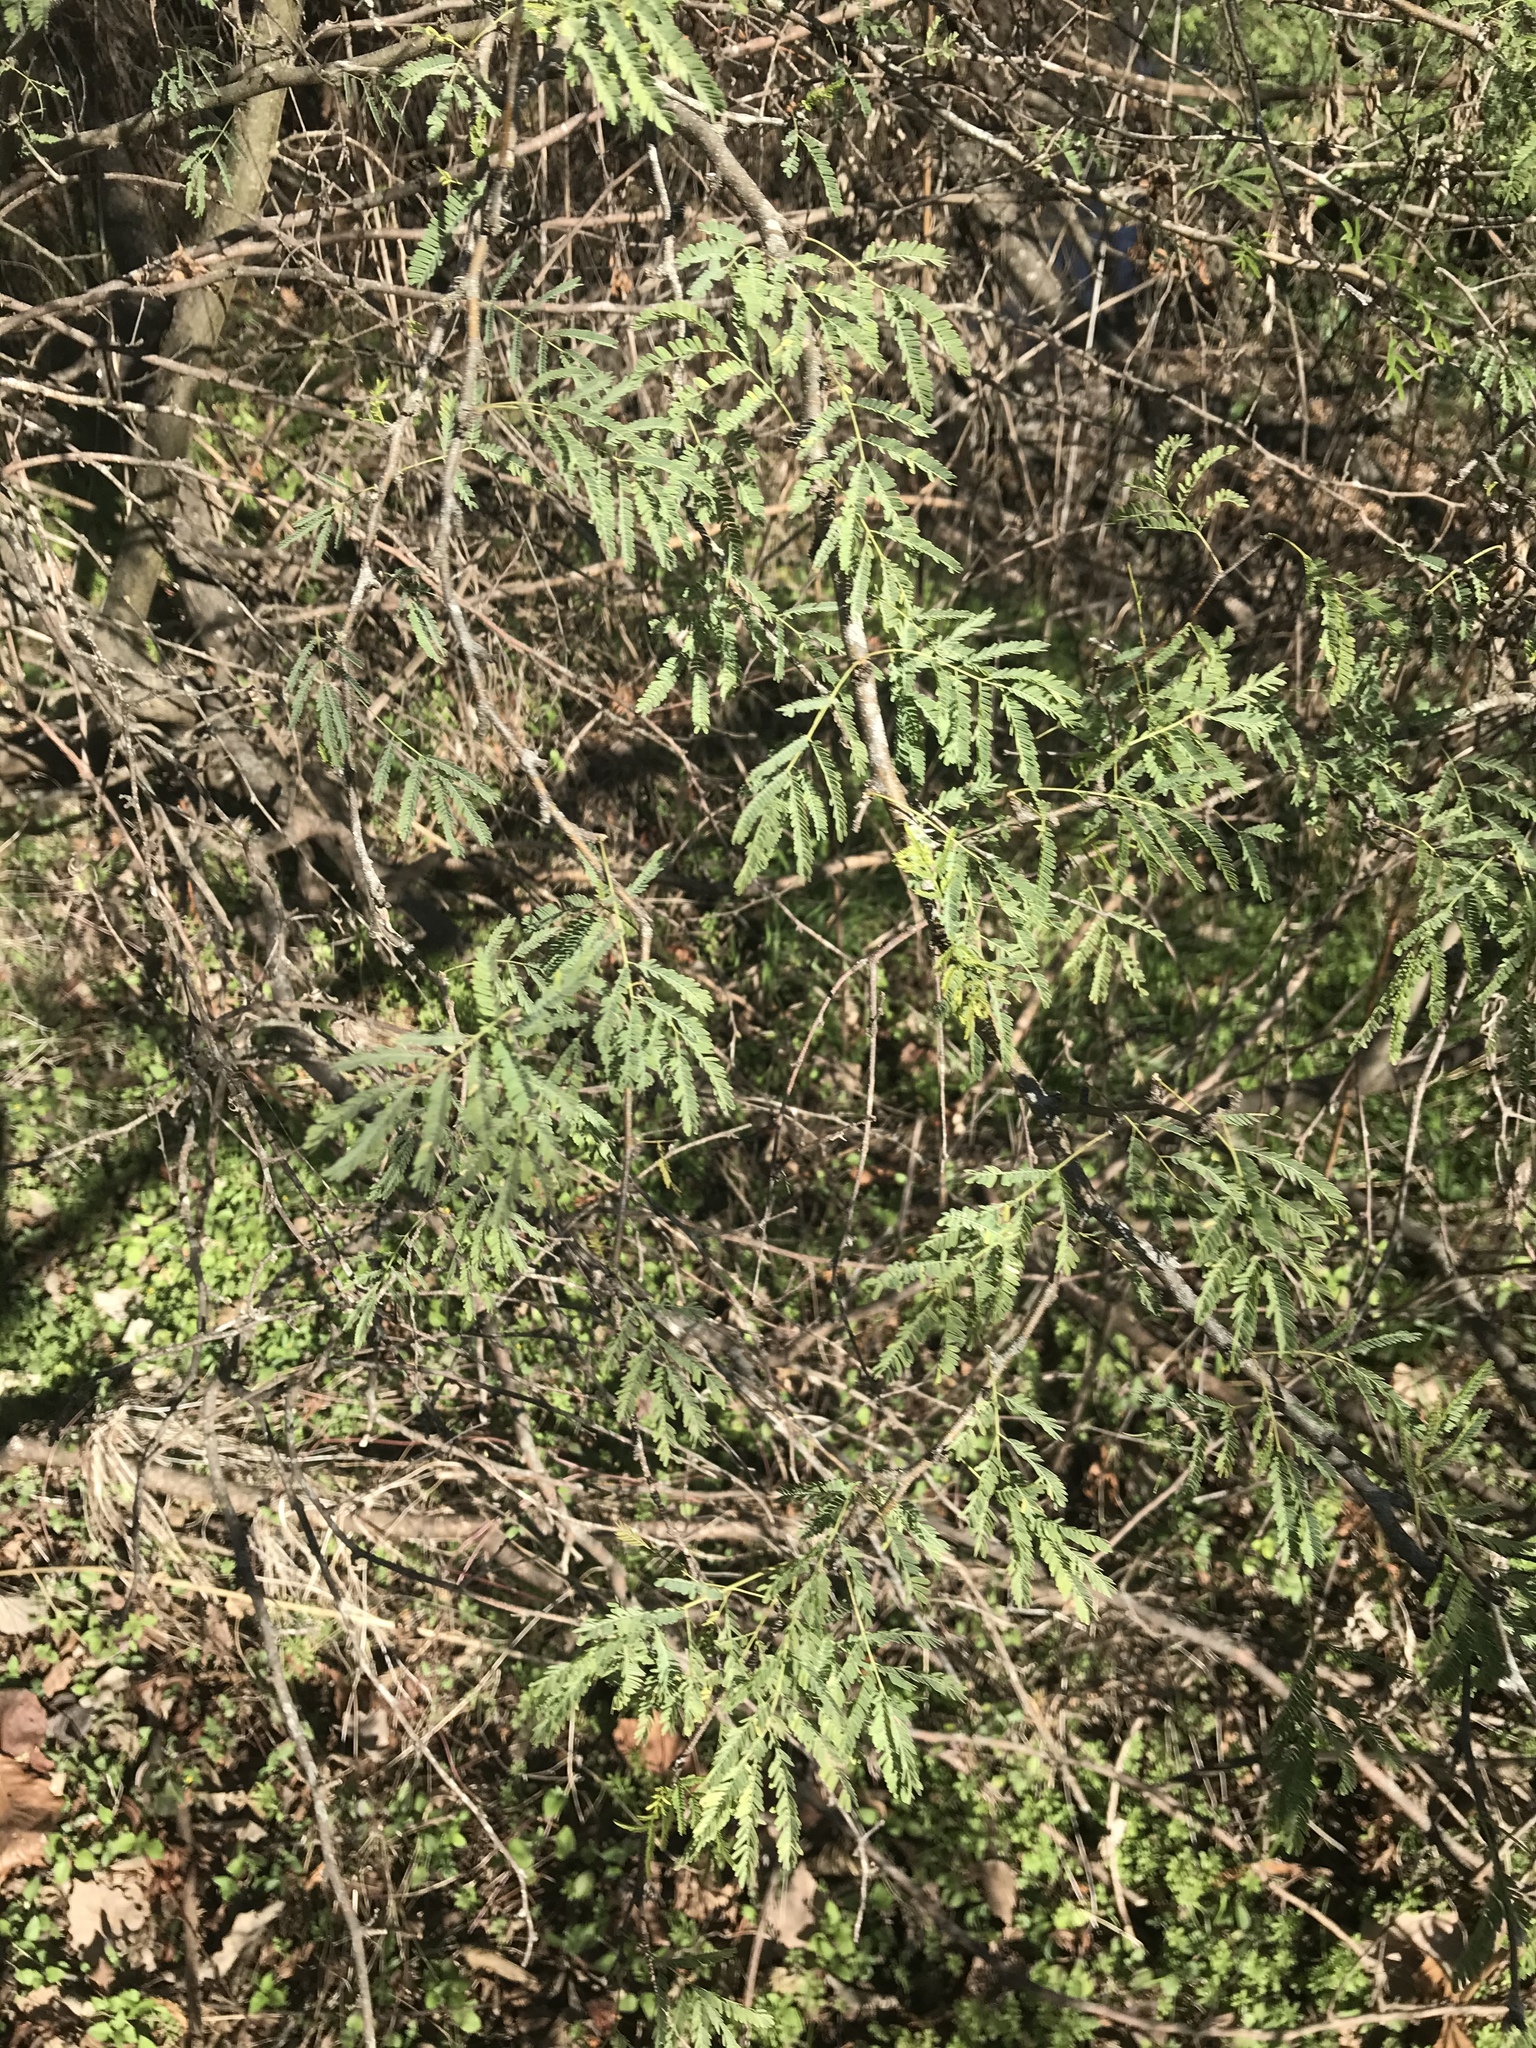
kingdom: Plantae
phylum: Tracheophyta
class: Magnoliopsida
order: Fabales
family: Fabaceae
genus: Vachellia
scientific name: Vachellia farnesiana
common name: Sweet acacia
